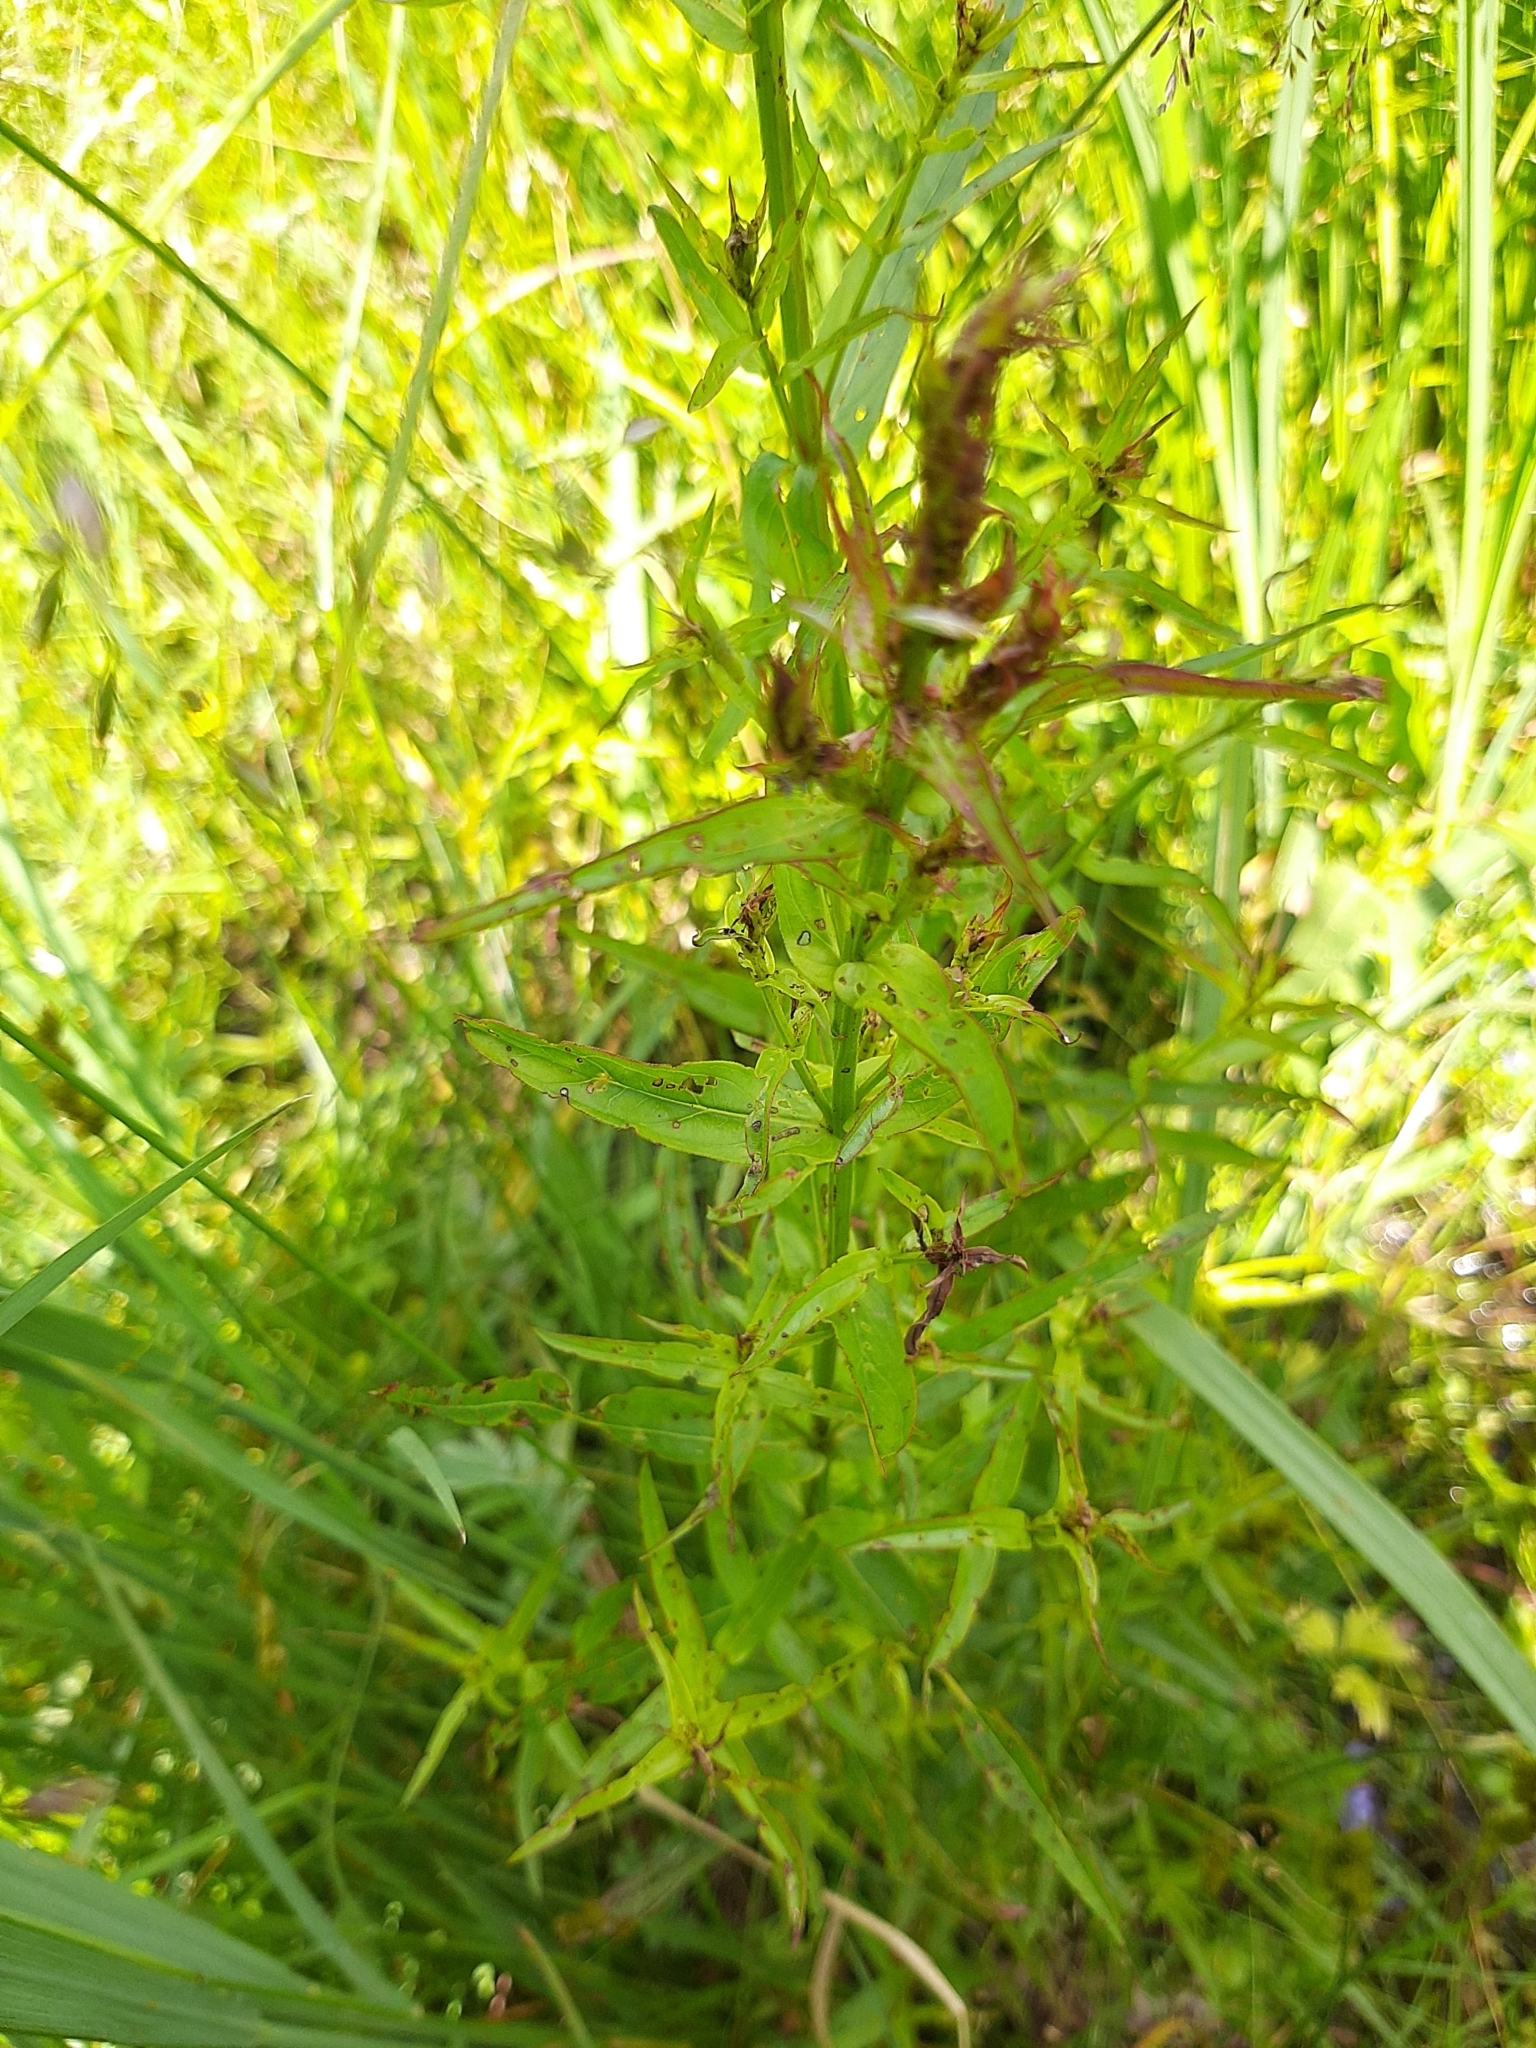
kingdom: Plantae
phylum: Tracheophyta
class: Magnoliopsida
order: Myrtales
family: Lythraceae
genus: Lythrum
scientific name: Lythrum salicaria
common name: Purple loosestrife
